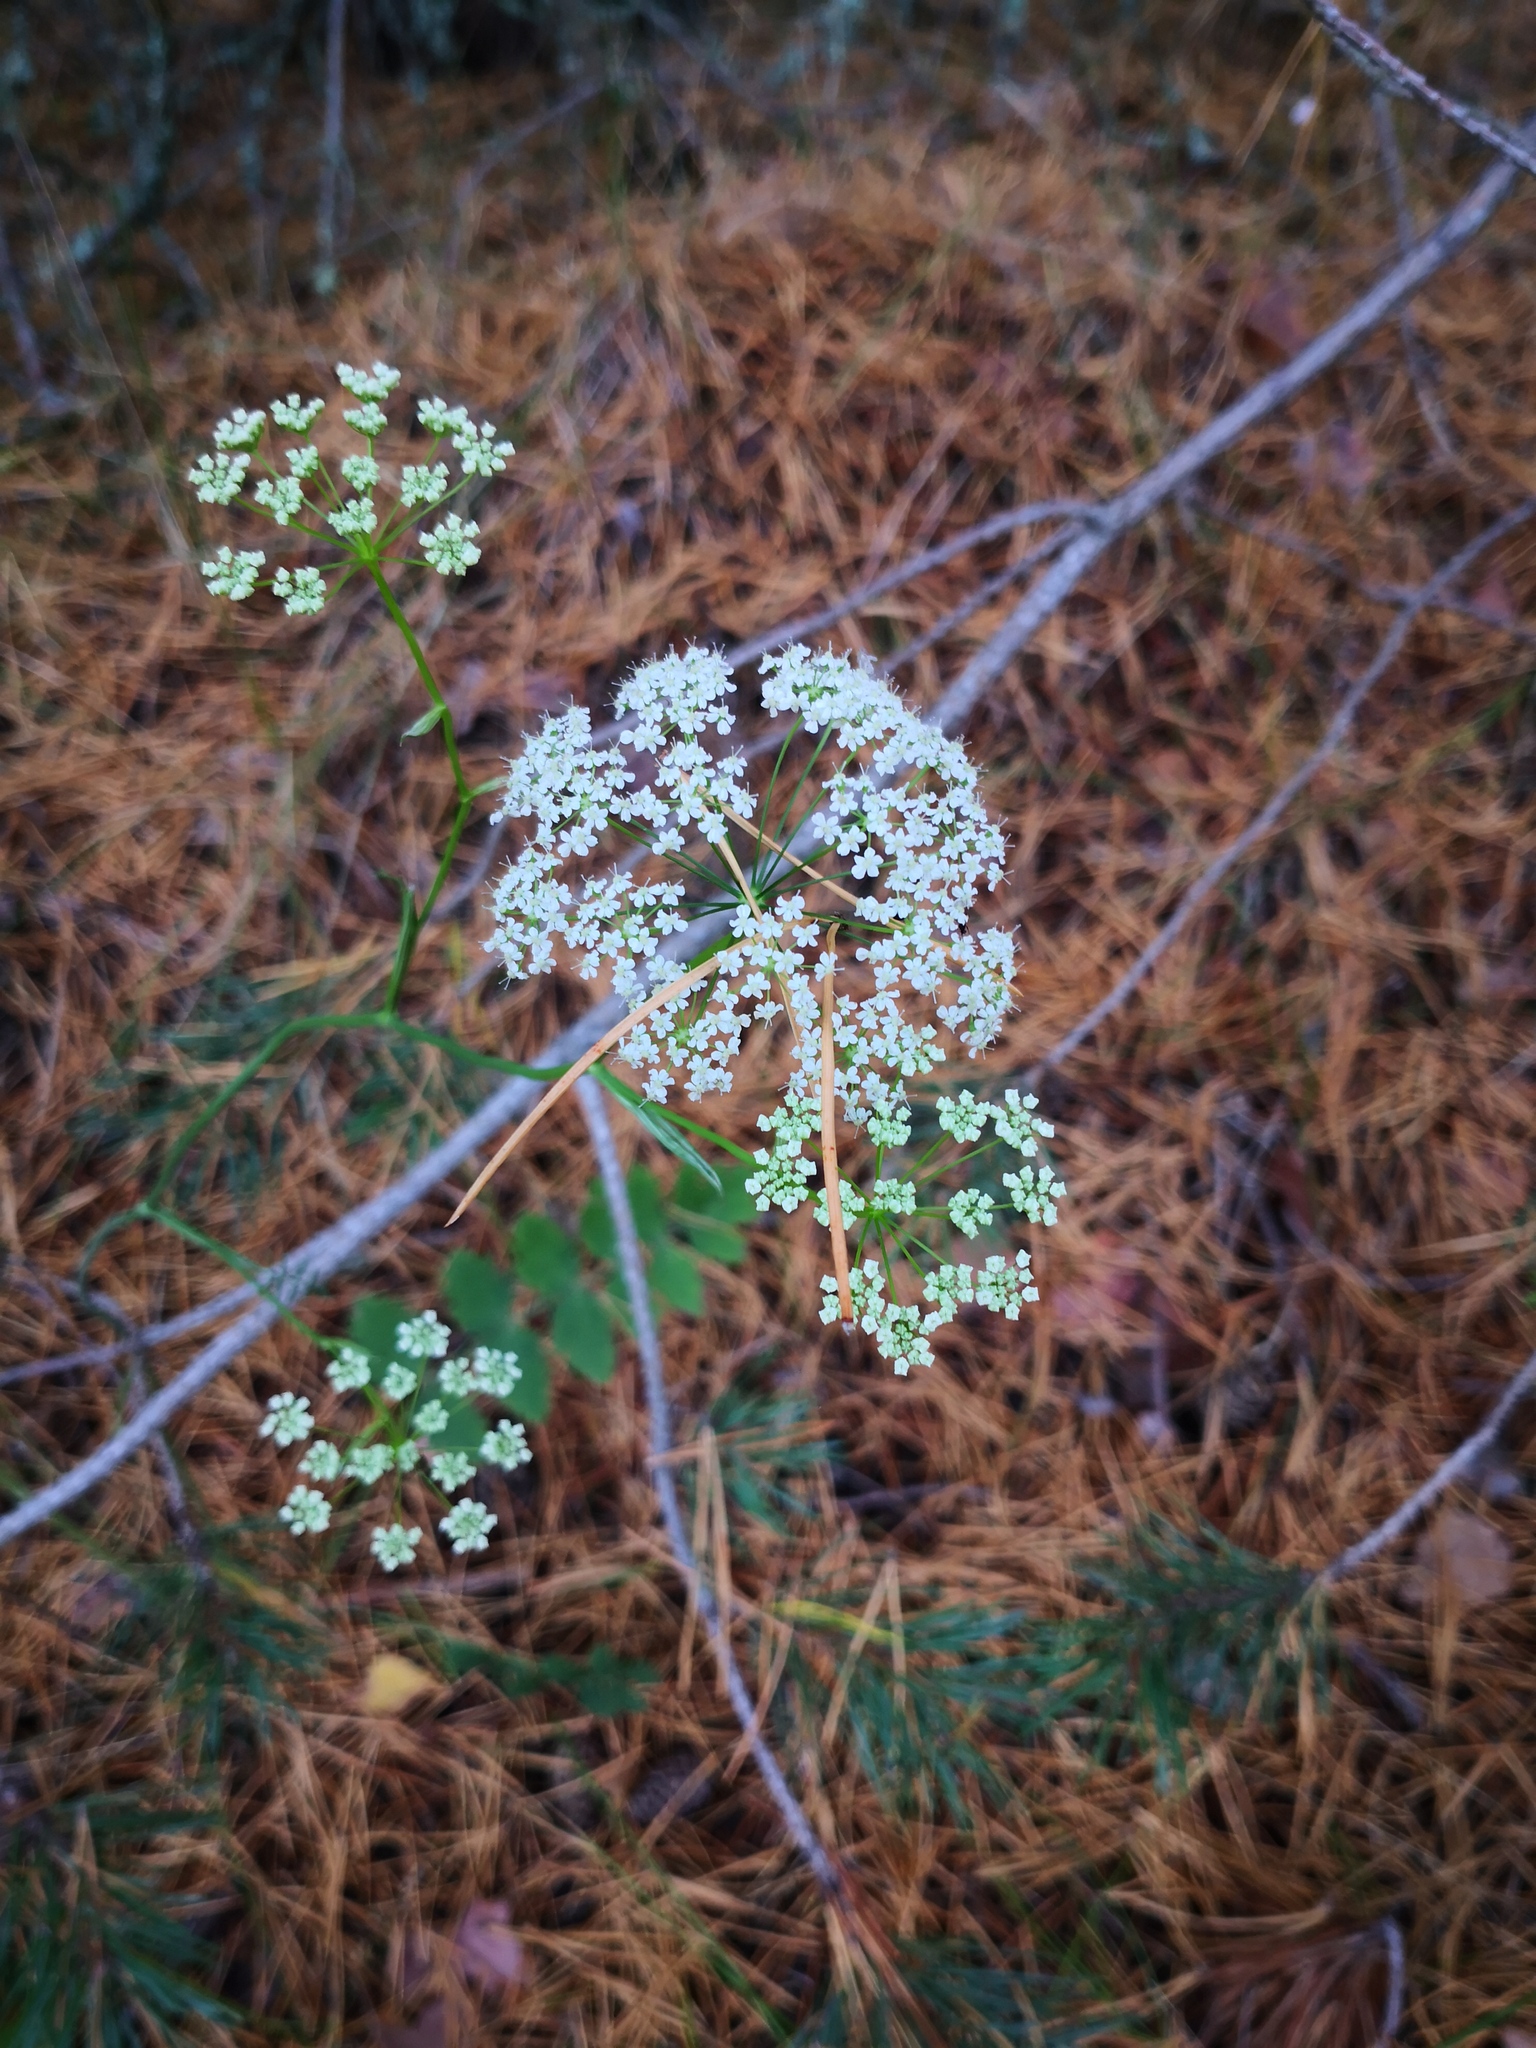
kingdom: Plantae
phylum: Tracheophyta
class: Magnoliopsida
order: Apiales
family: Apiaceae
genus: Pimpinella
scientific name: Pimpinella saxifraga
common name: Burnet-saxifrage
